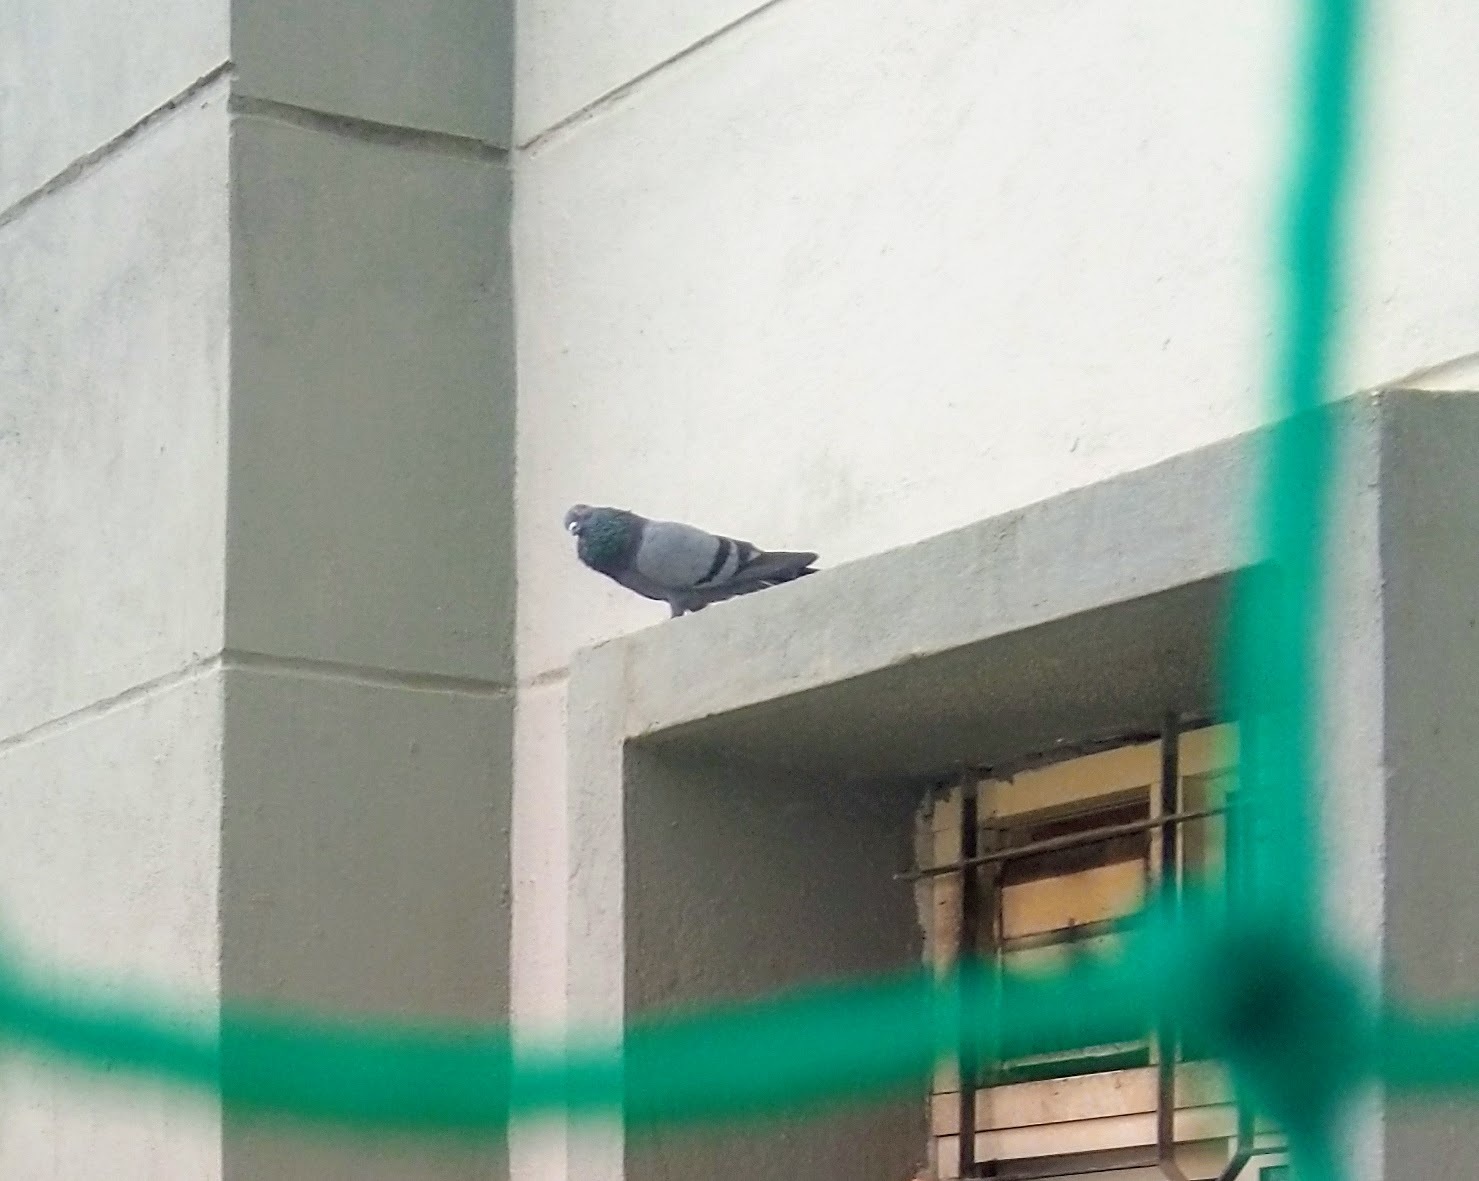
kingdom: Animalia
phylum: Chordata
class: Aves
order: Columbiformes
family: Columbidae
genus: Columba
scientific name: Columba livia
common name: Rock pigeon
